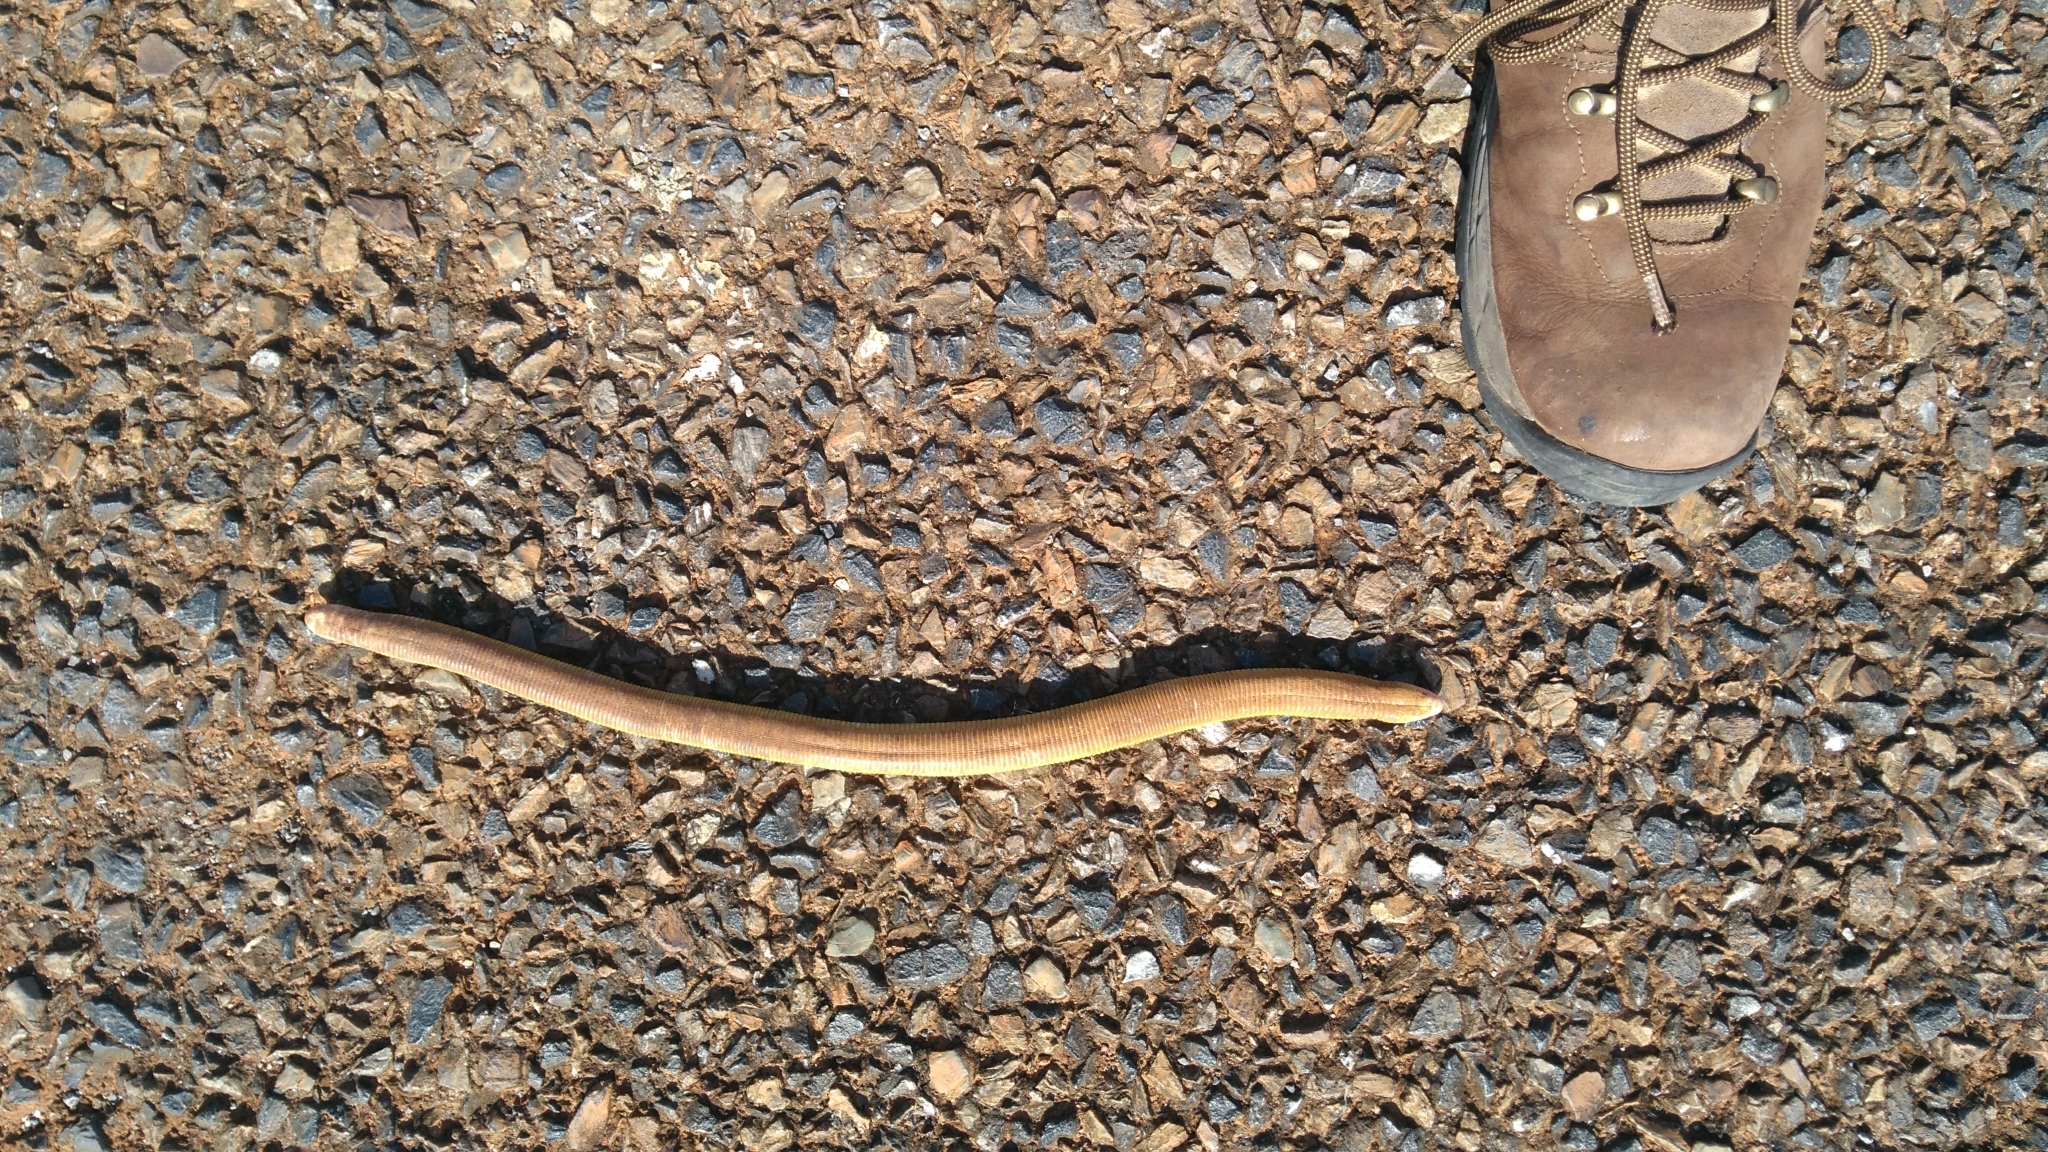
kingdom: Animalia
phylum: Chordata
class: Squamata
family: Amphisbaenidae
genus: Amphisbaena
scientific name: Amphisbaena alba
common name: Red worm lizard
